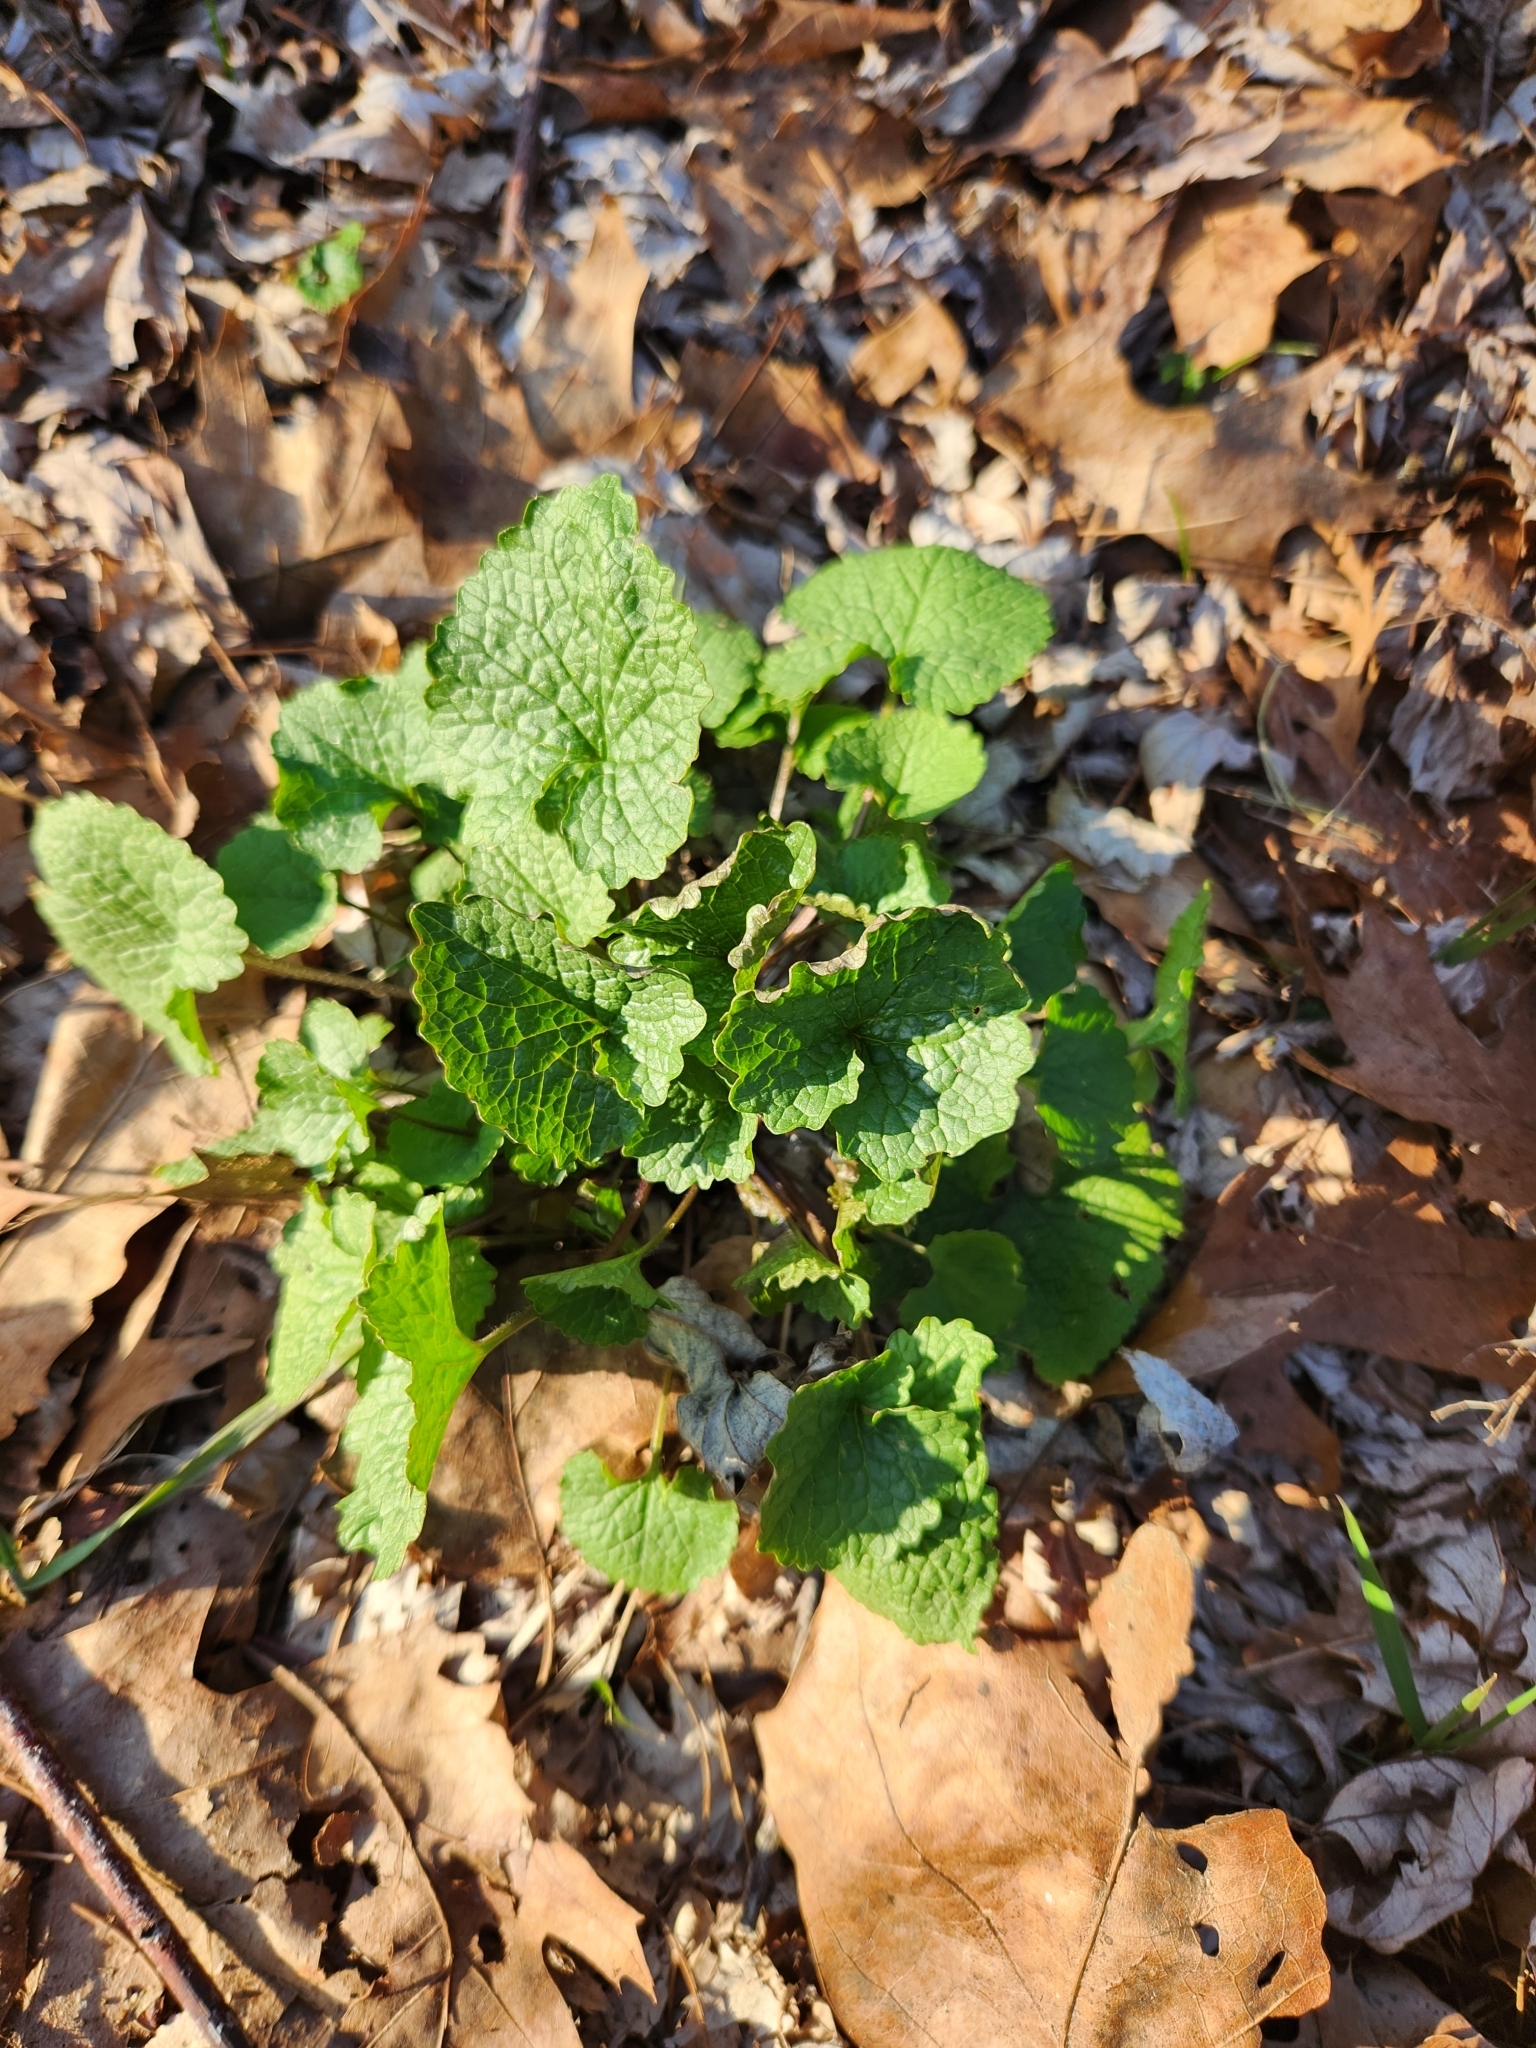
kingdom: Plantae
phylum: Tracheophyta
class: Magnoliopsida
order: Brassicales
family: Brassicaceae
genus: Alliaria
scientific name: Alliaria petiolata
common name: Garlic mustard
